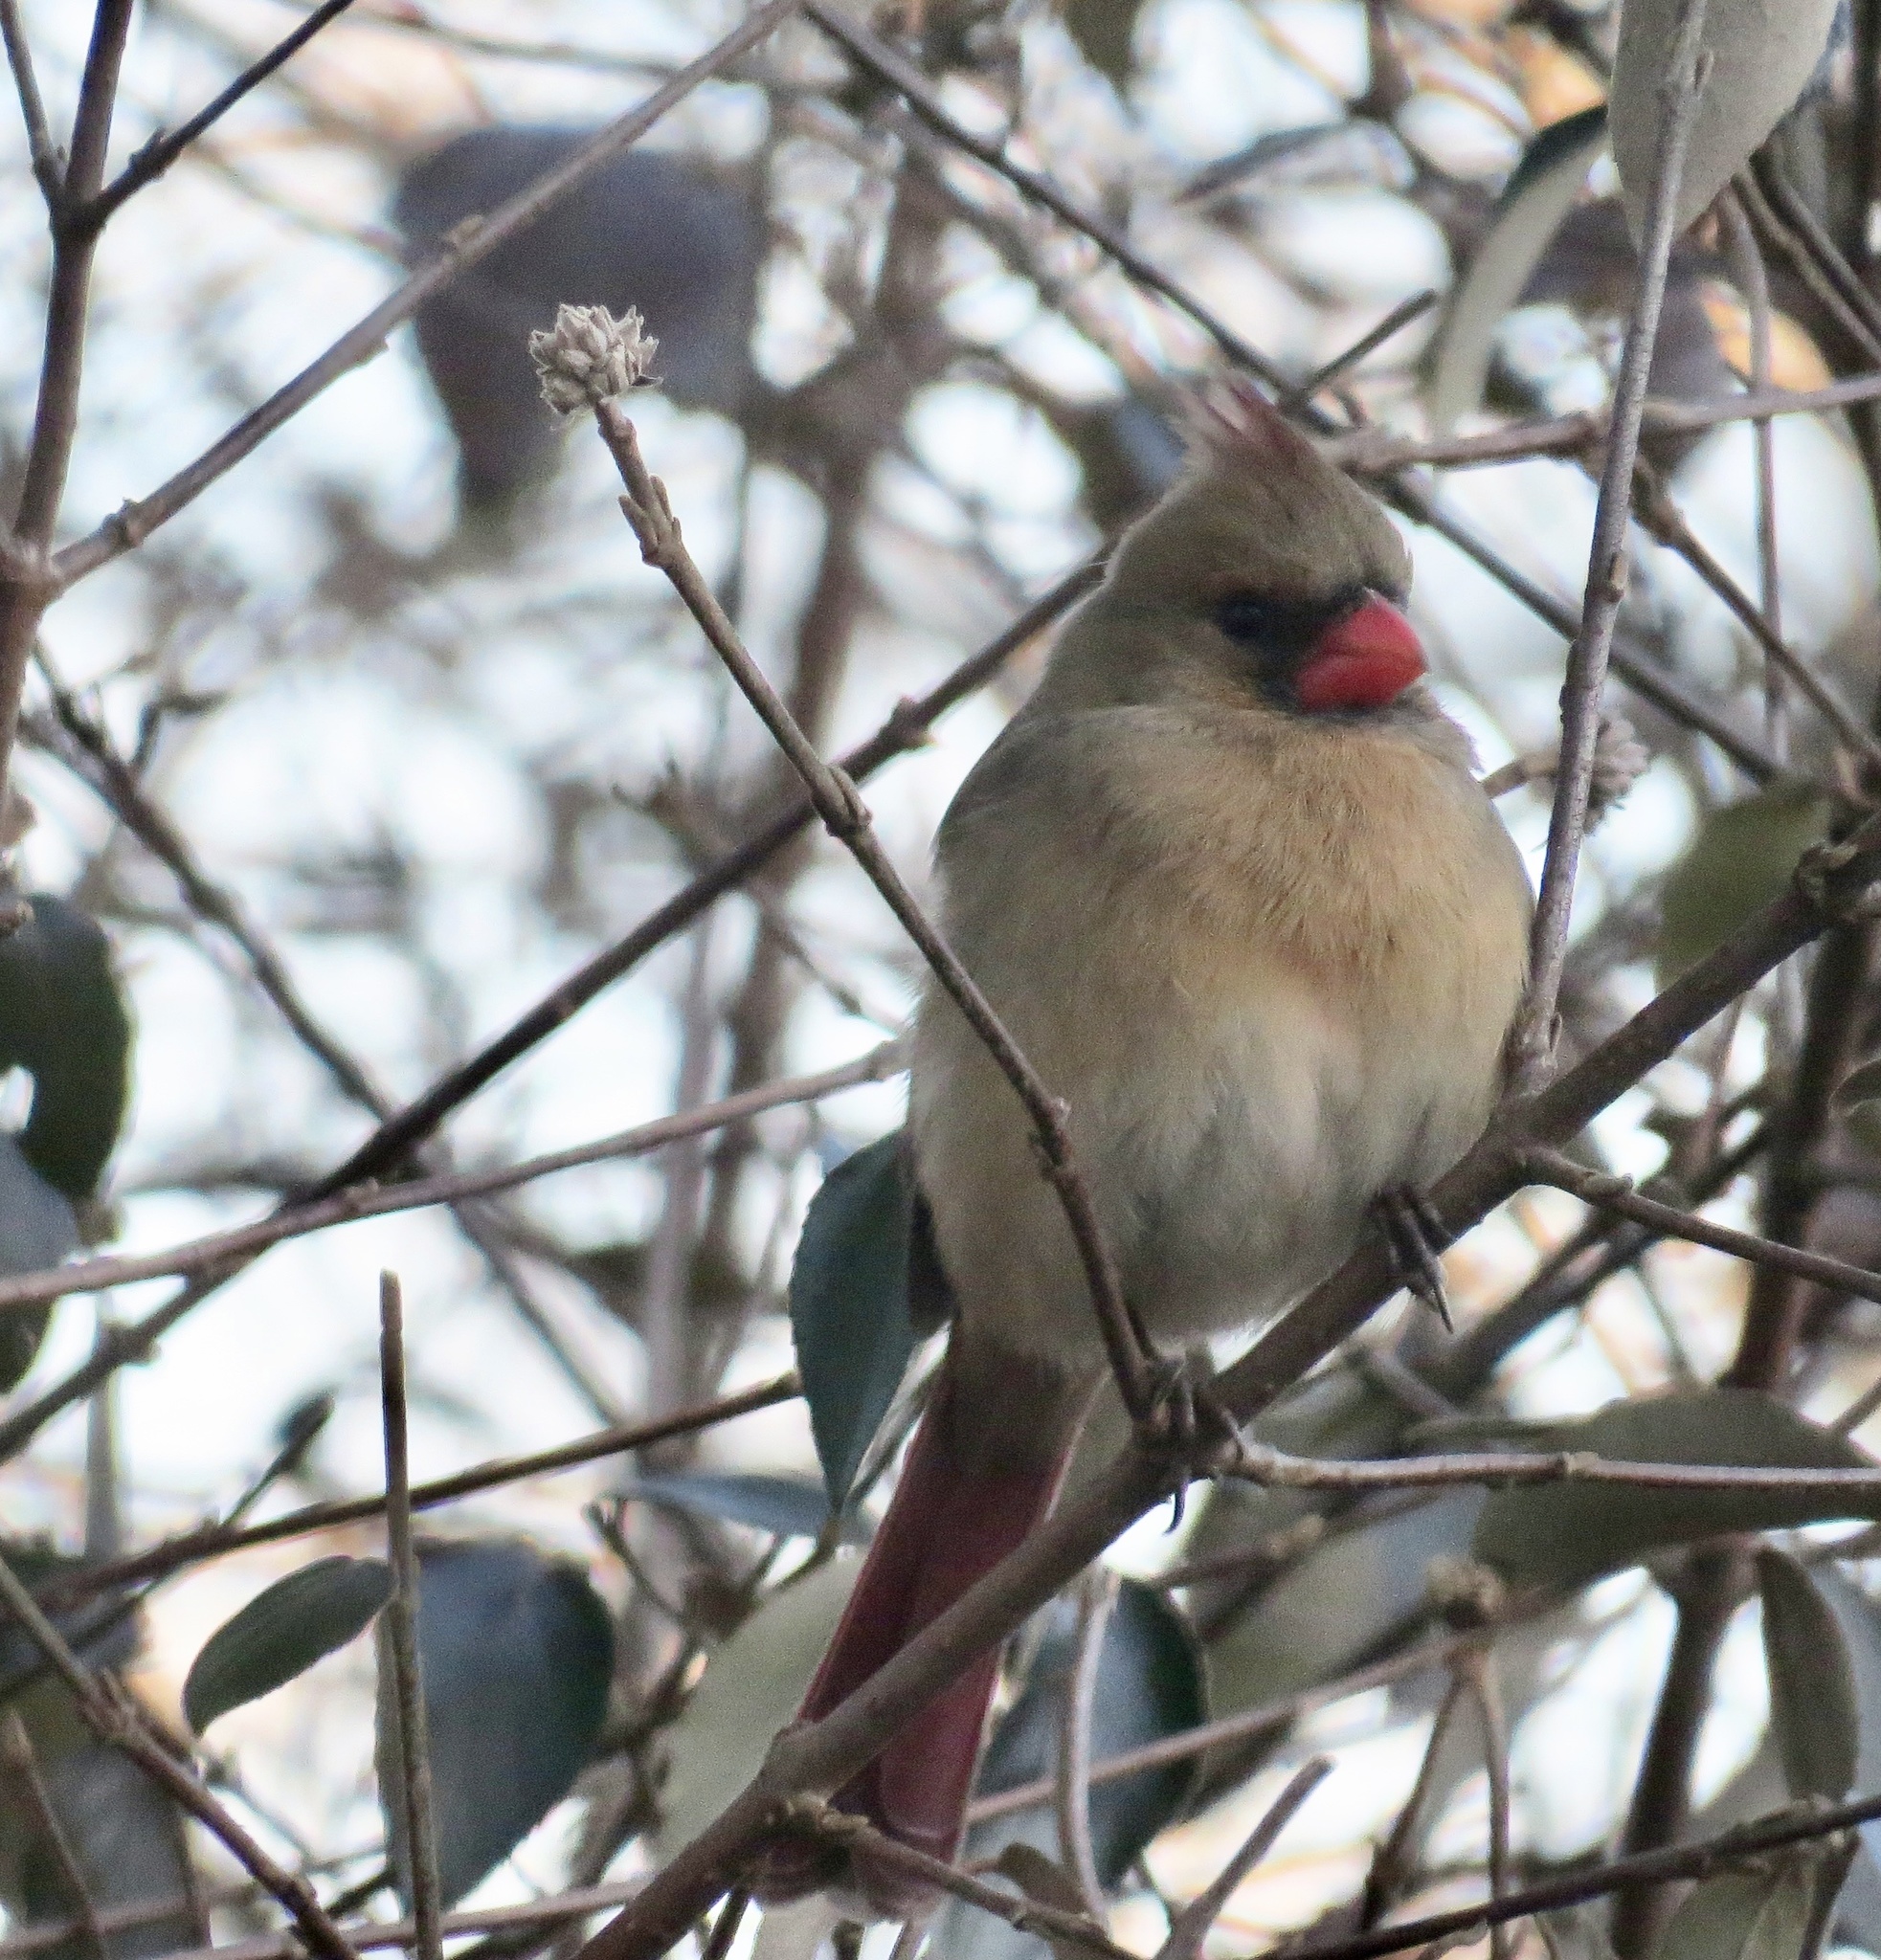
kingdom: Animalia
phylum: Chordata
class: Aves
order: Passeriformes
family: Cardinalidae
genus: Cardinalis
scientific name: Cardinalis cardinalis
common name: Northern cardinal
